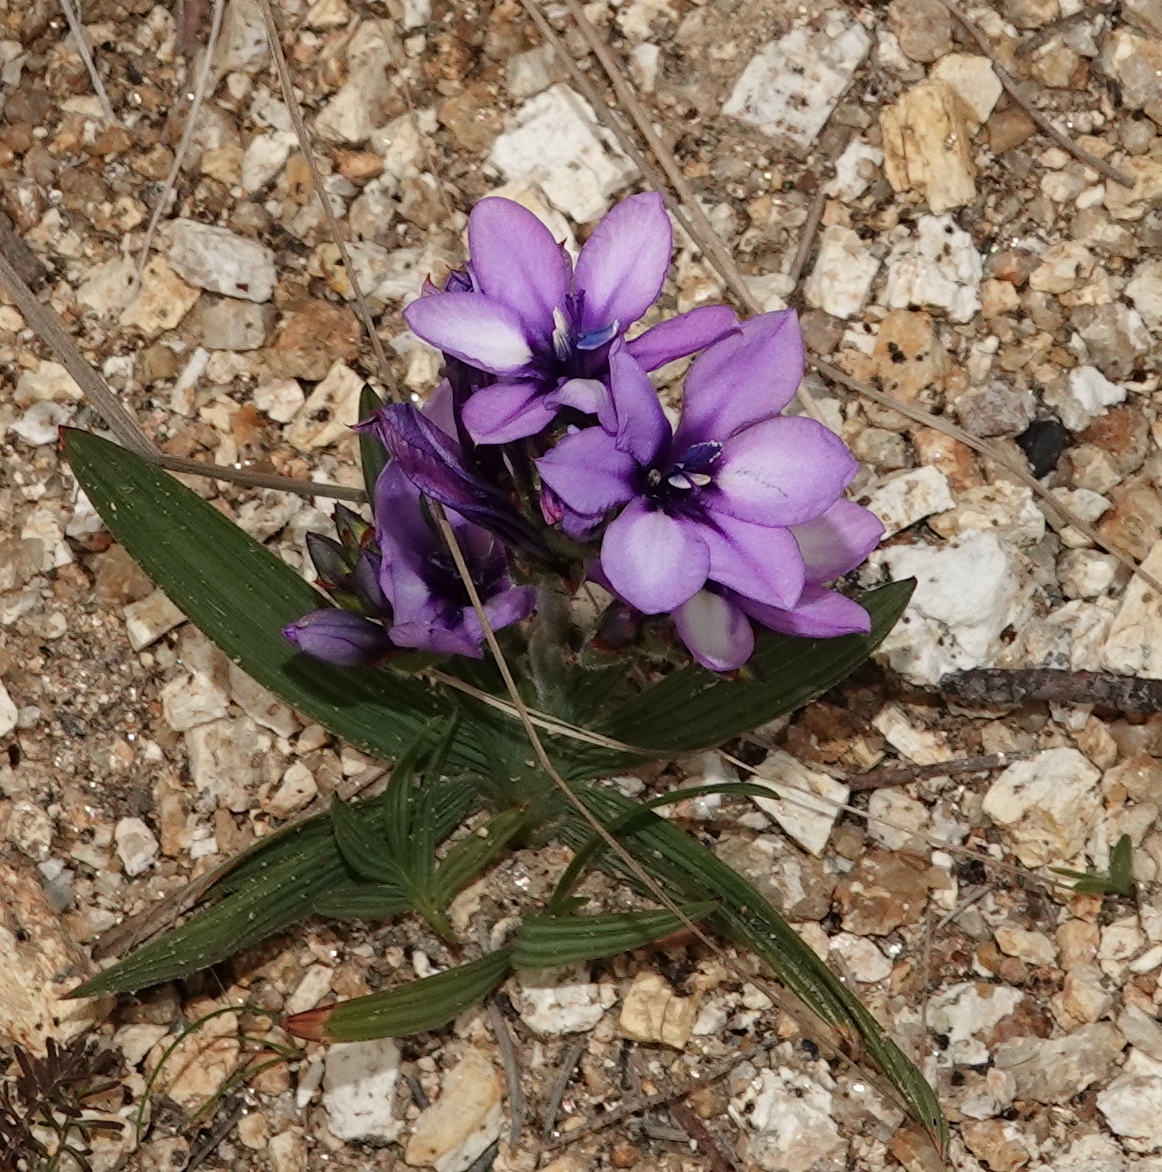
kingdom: Plantae
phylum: Tracheophyta
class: Liliopsida
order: Asparagales
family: Iridaceae
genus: Babiana
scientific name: Babiana fragrans
